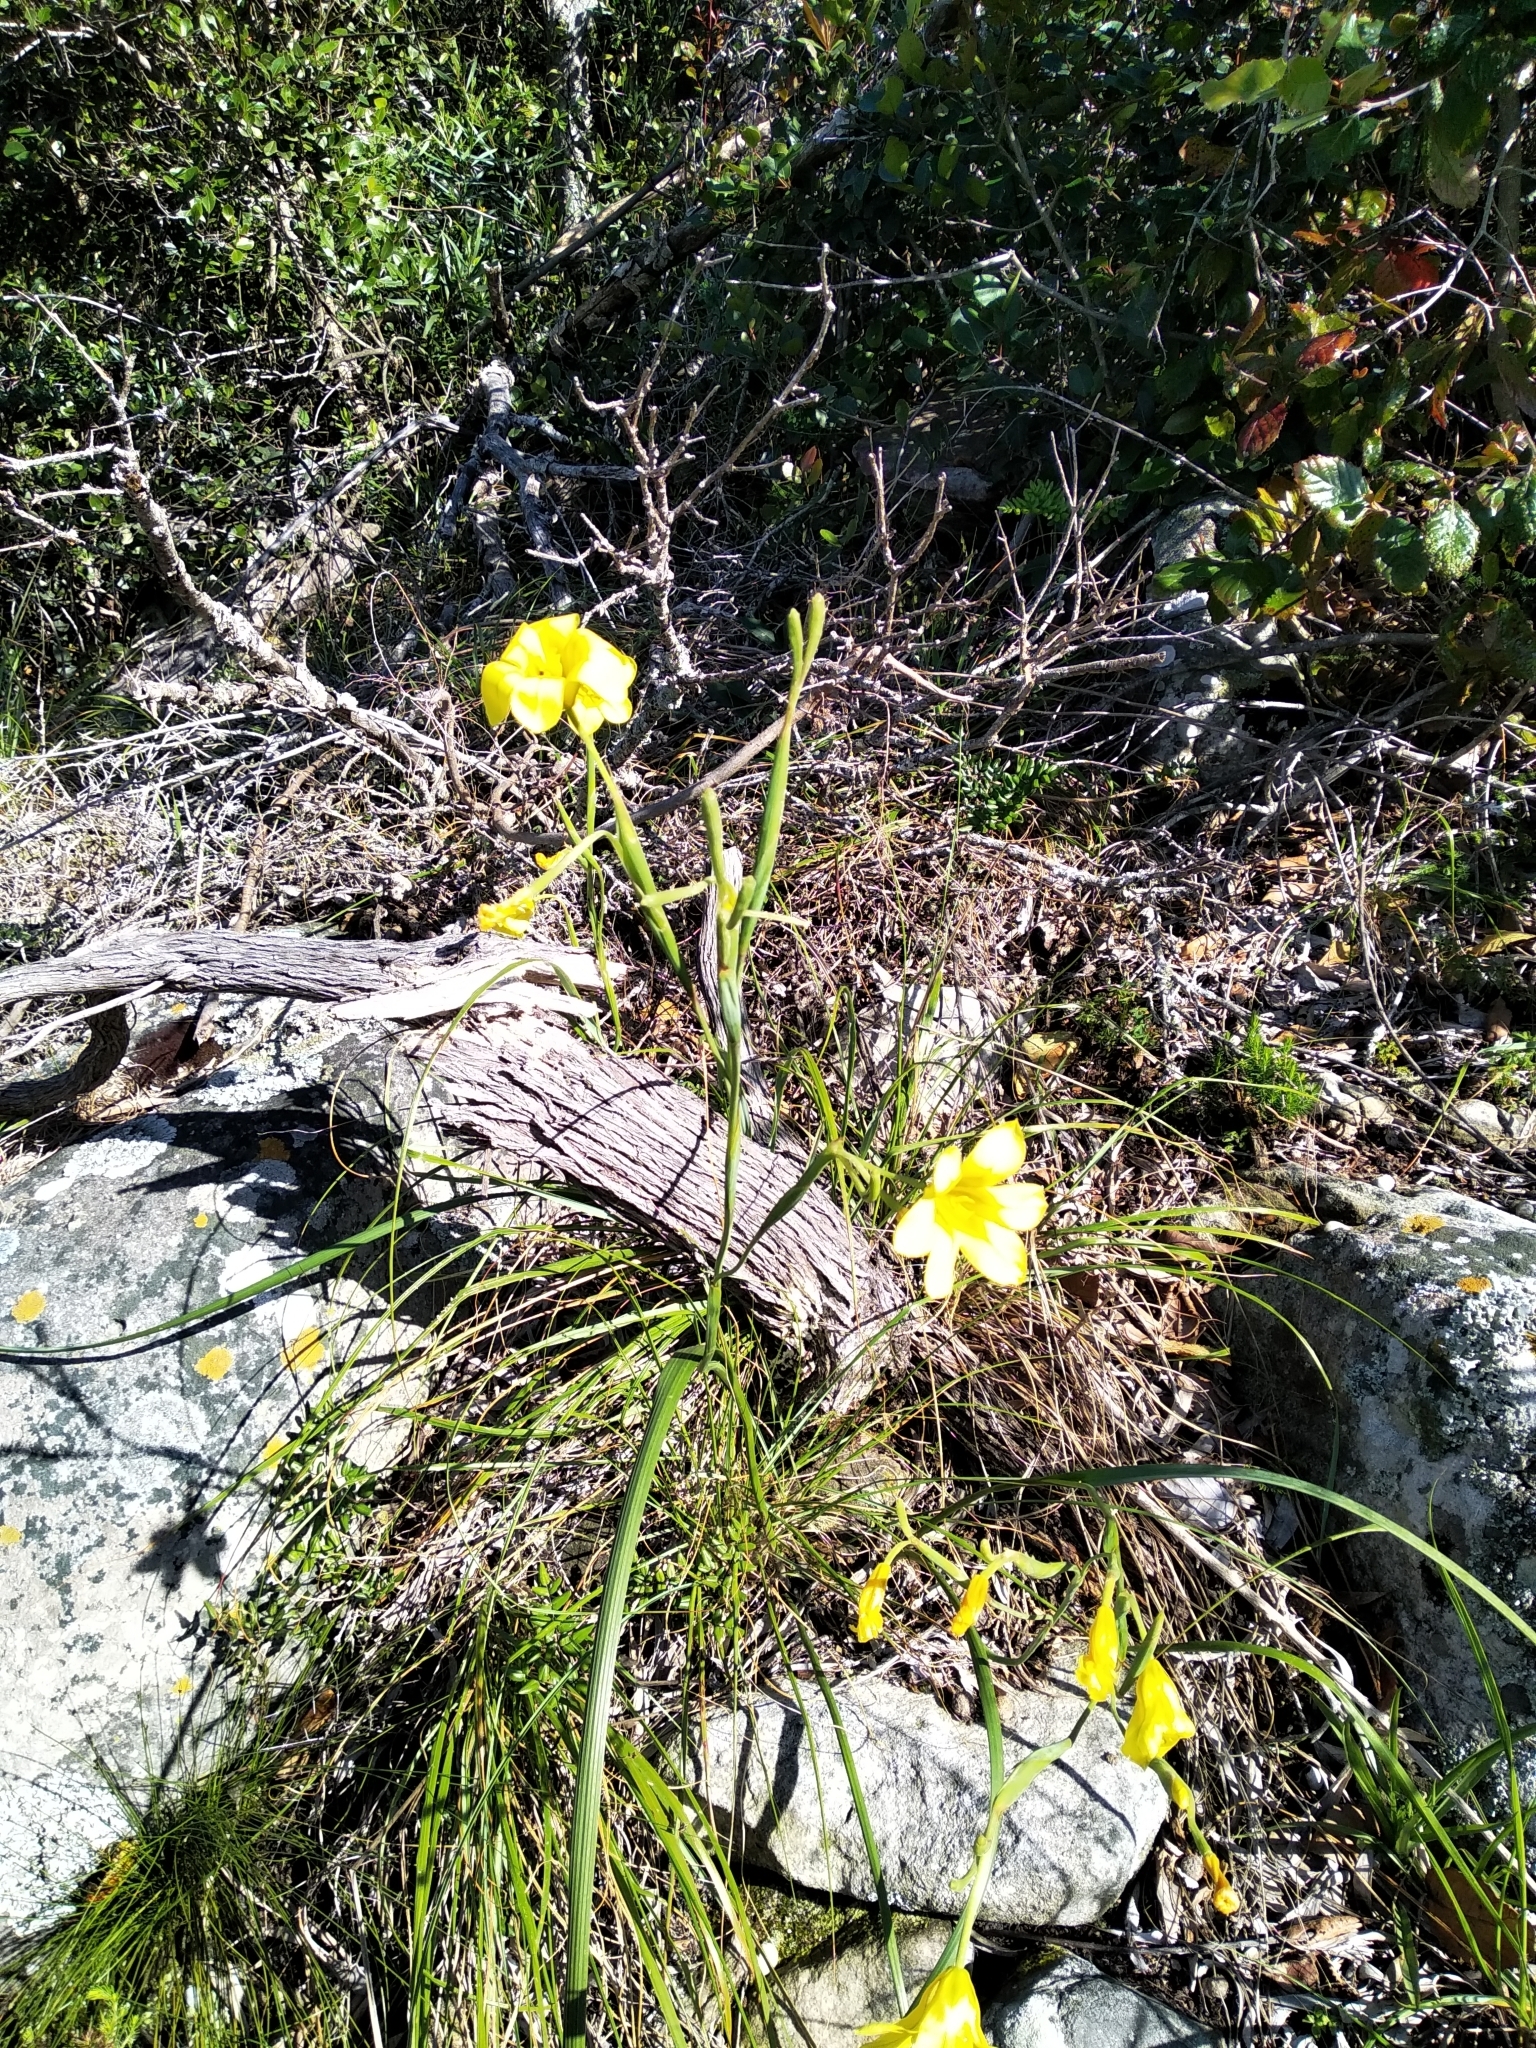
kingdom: Plantae
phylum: Tracheophyta
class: Liliopsida
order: Asparagales
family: Iridaceae
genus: Moraea
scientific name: Moraea ochroleuca
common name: Red tulp
